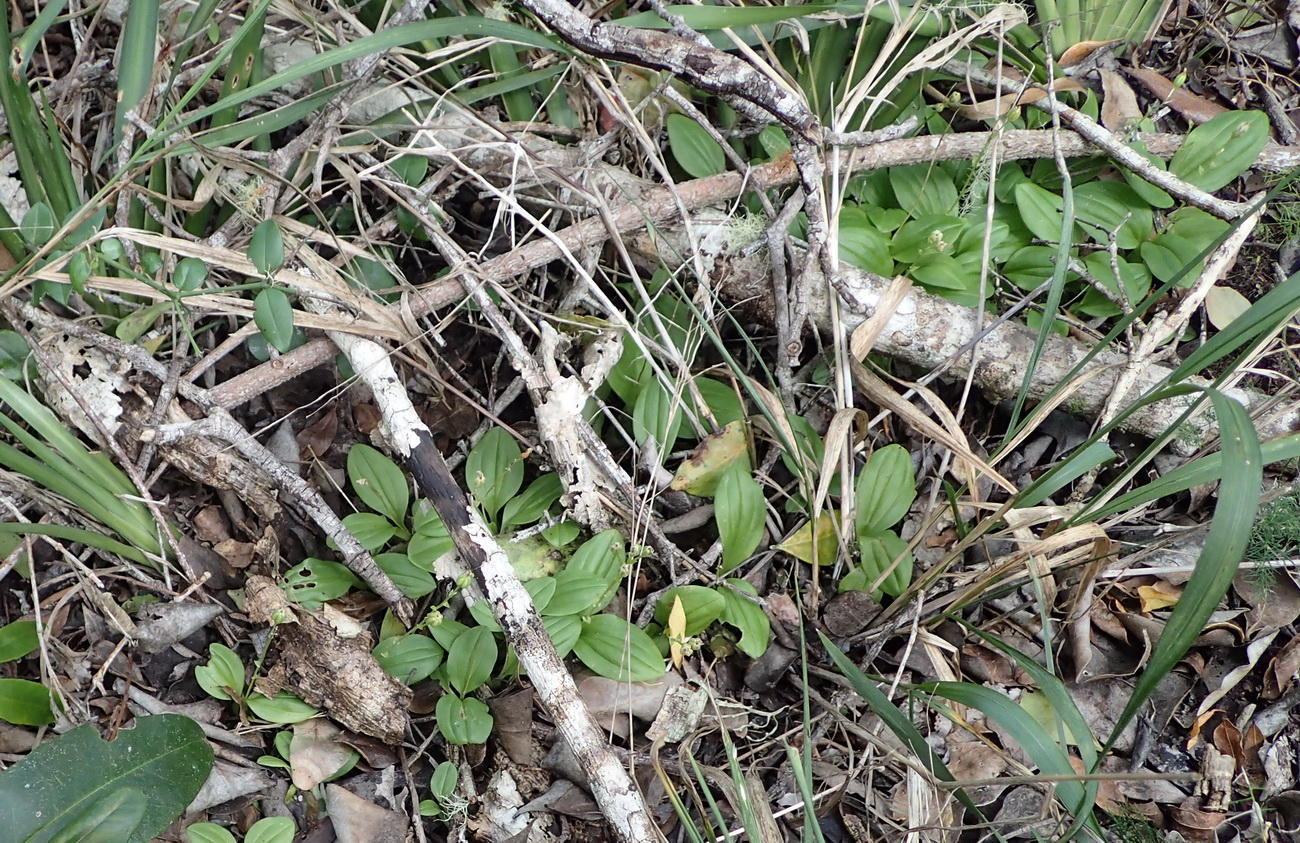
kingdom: Plantae
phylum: Tracheophyta
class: Liliopsida
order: Asparagales
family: Orchidaceae
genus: Liparis
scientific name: Liparis remota
